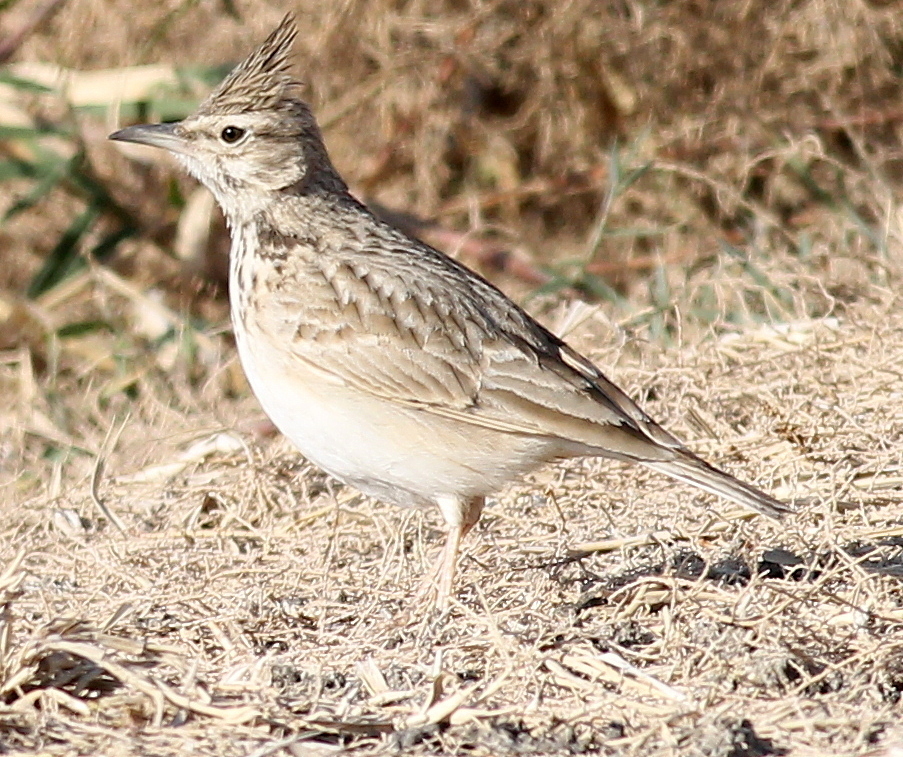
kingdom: Animalia
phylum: Chordata
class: Aves
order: Passeriformes
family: Alaudidae
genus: Galerida
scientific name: Galerida cristata
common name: Crested lark
